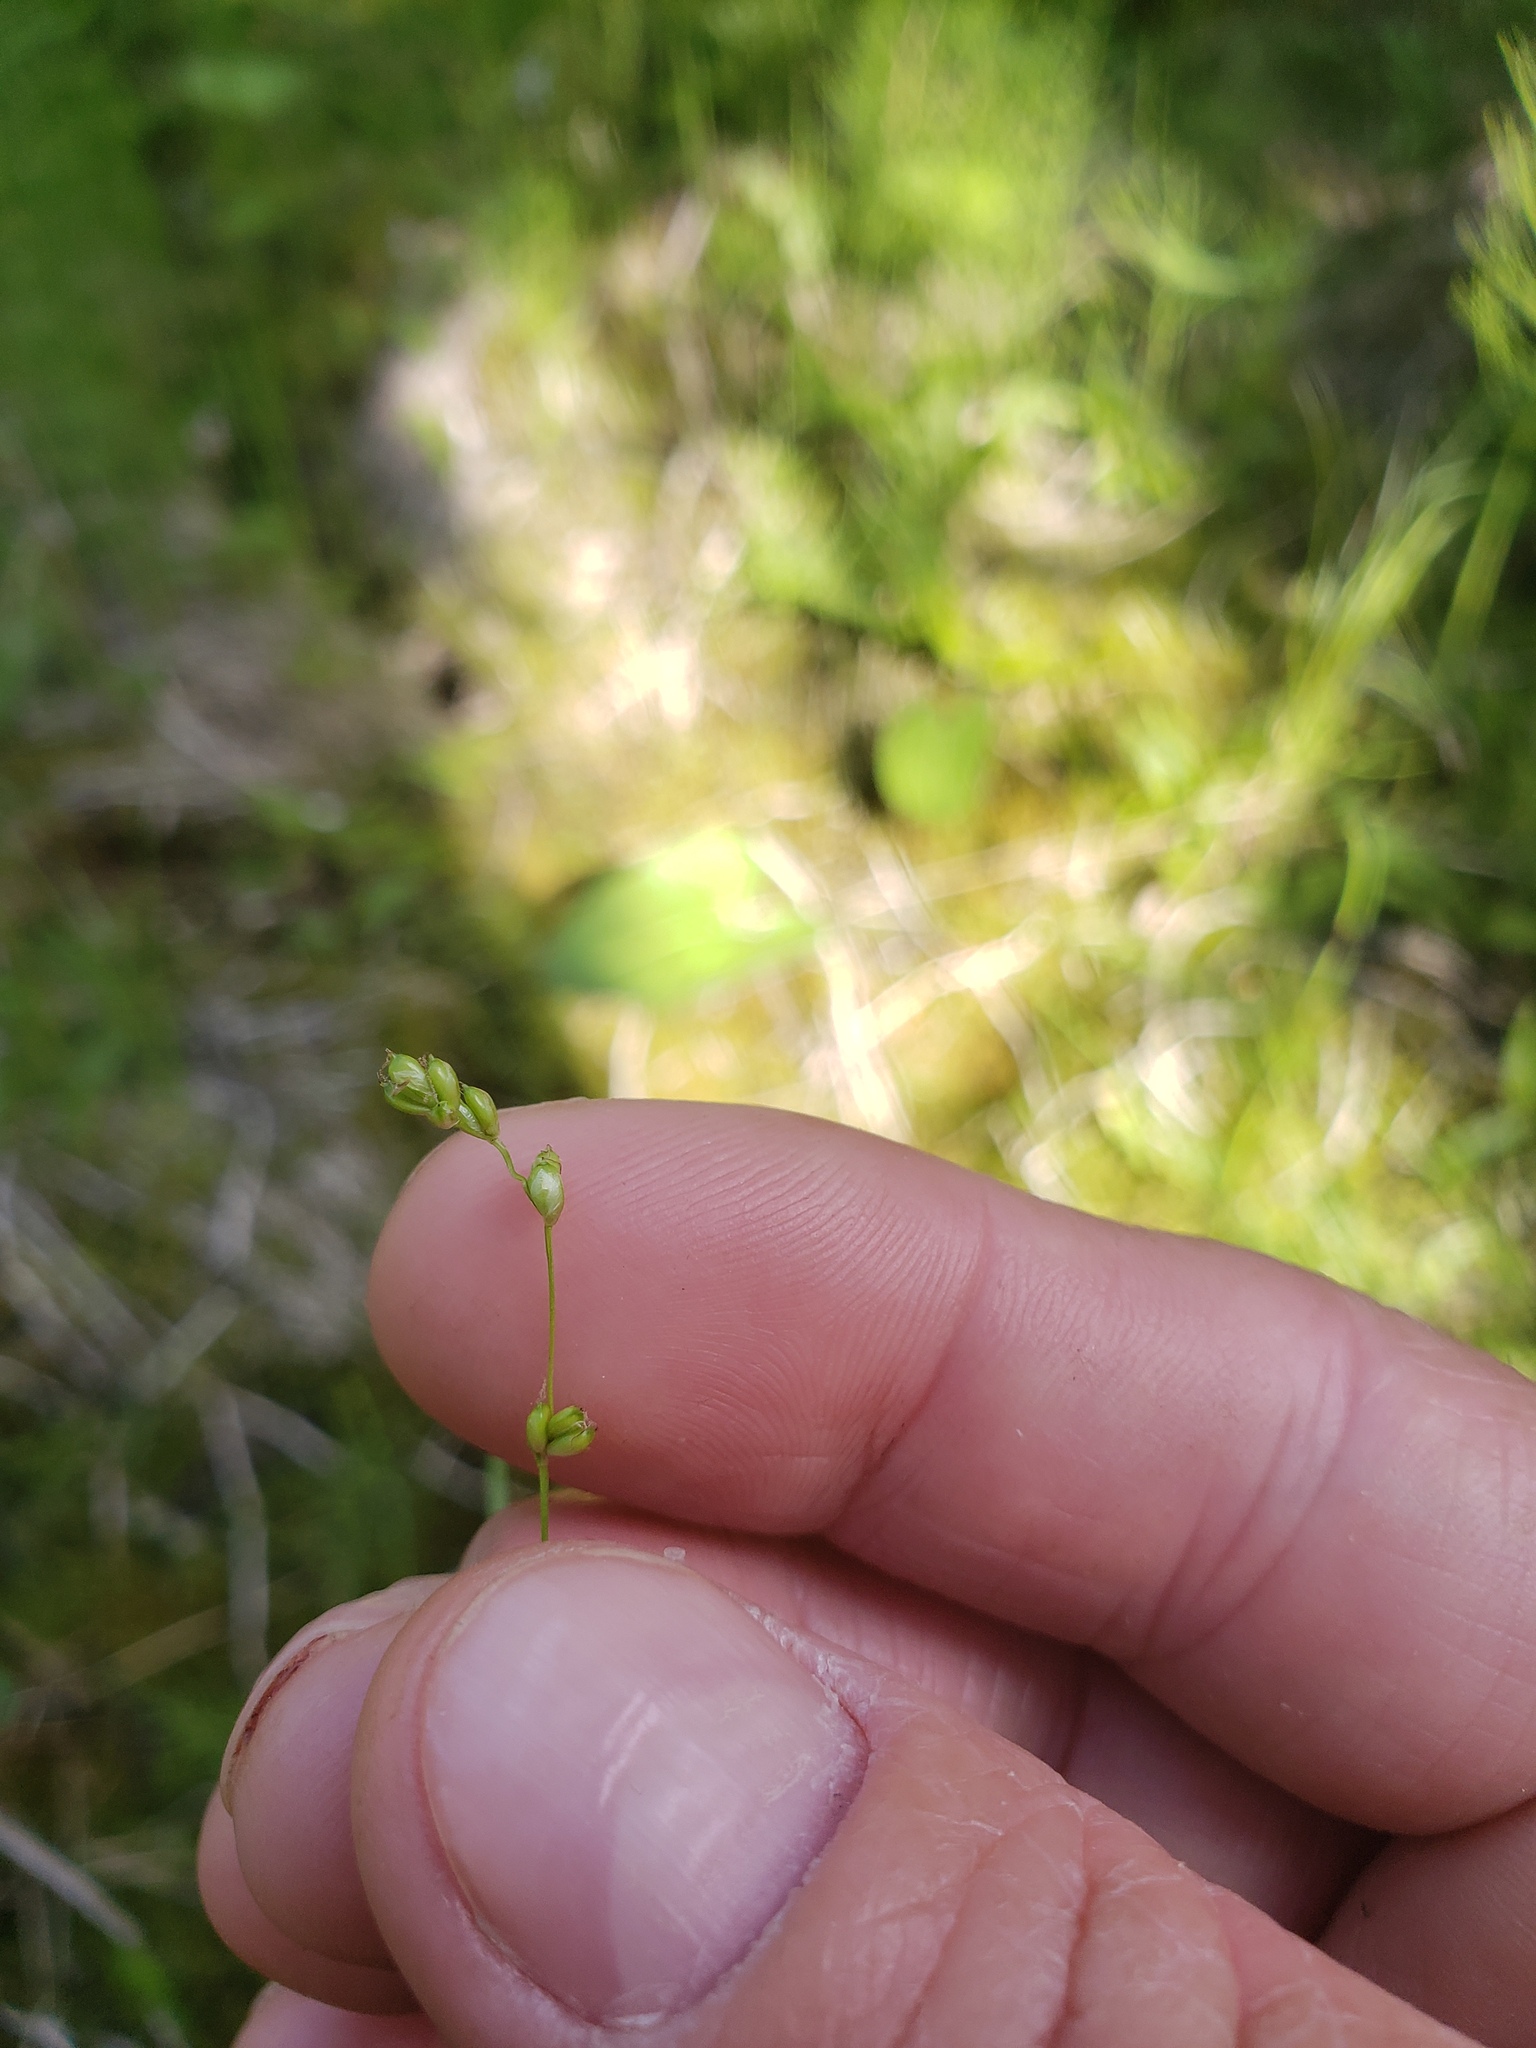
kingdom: Plantae
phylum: Tracheophyta
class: Liliopsida
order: Poales
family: Cyperaceae
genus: Carex
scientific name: Carex disperma
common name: Short-leaved sedge
